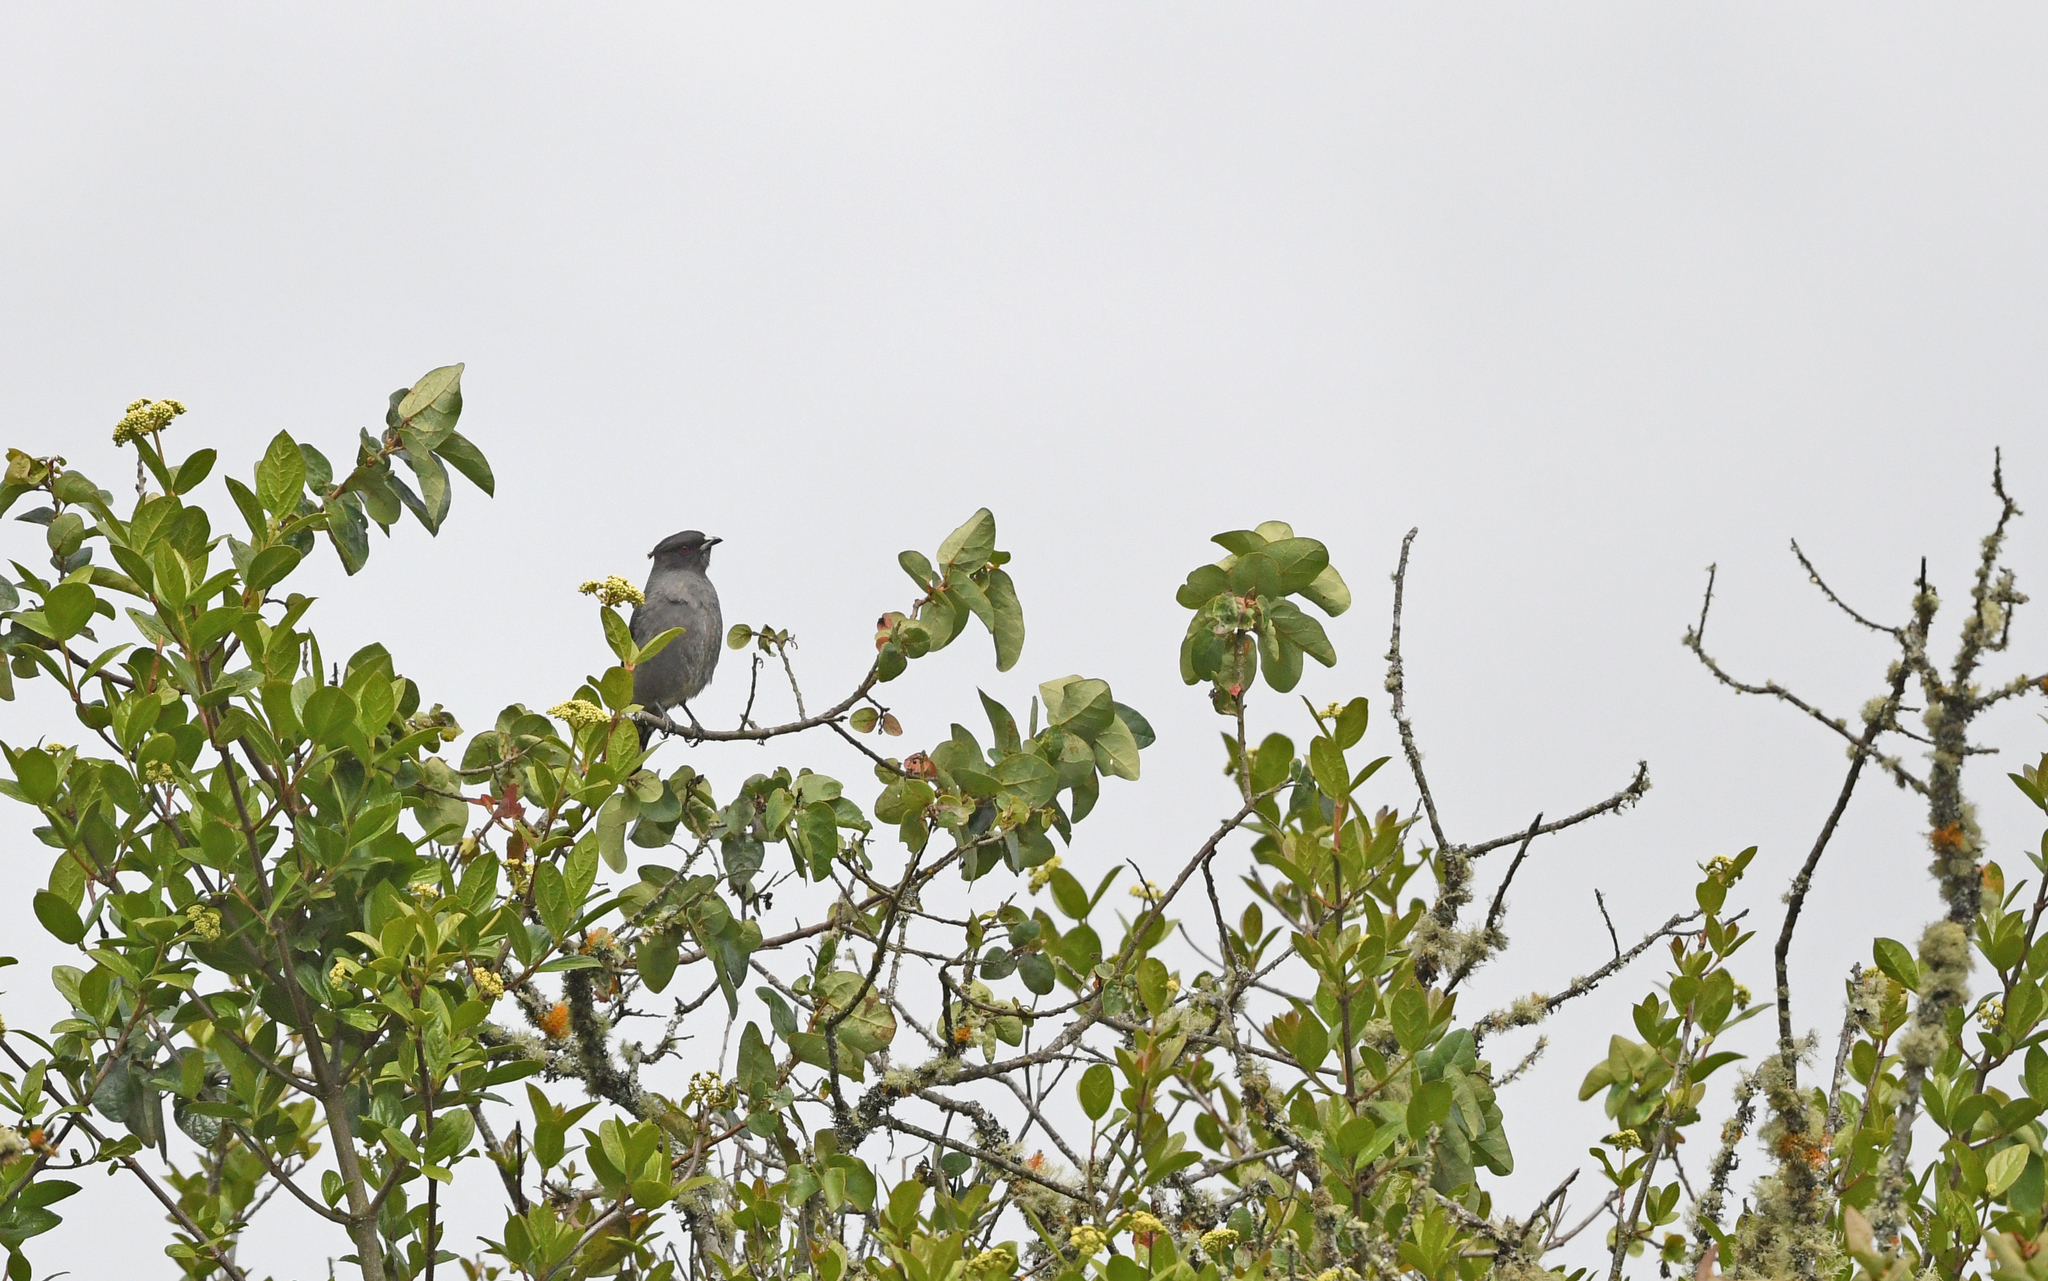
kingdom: Animalia
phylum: Chordata
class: Aves
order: Passeriformes
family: Cotingidae
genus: Ampelion
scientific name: Ampelion rubrocristatus
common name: Red-crested cotinga
